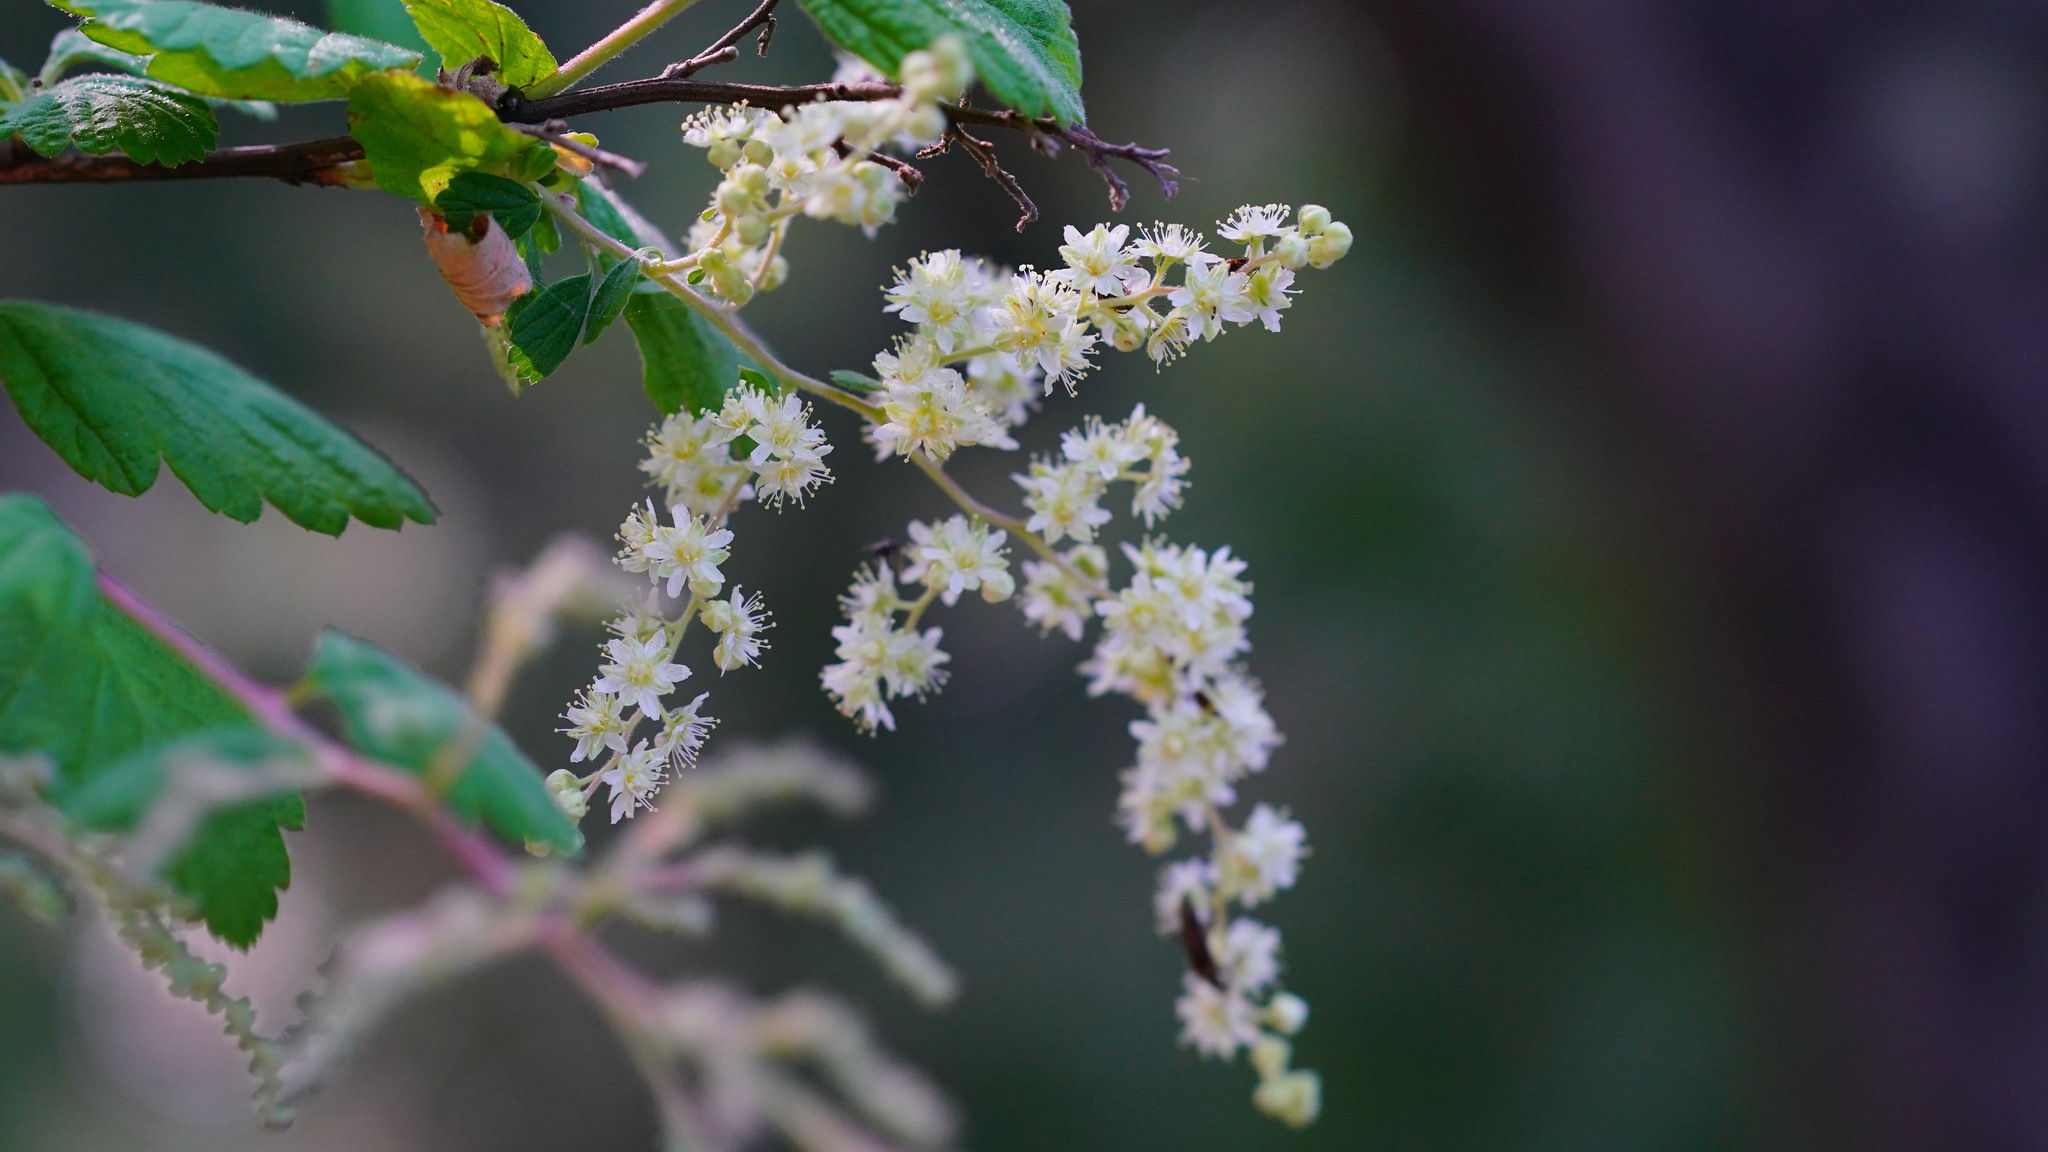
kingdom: Plantae
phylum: Tracheophyta
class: Magnoliopsida
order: Rosales
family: Rosaceae
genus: Holodiscus
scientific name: Holodiscus discolor
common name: Oceanspray
